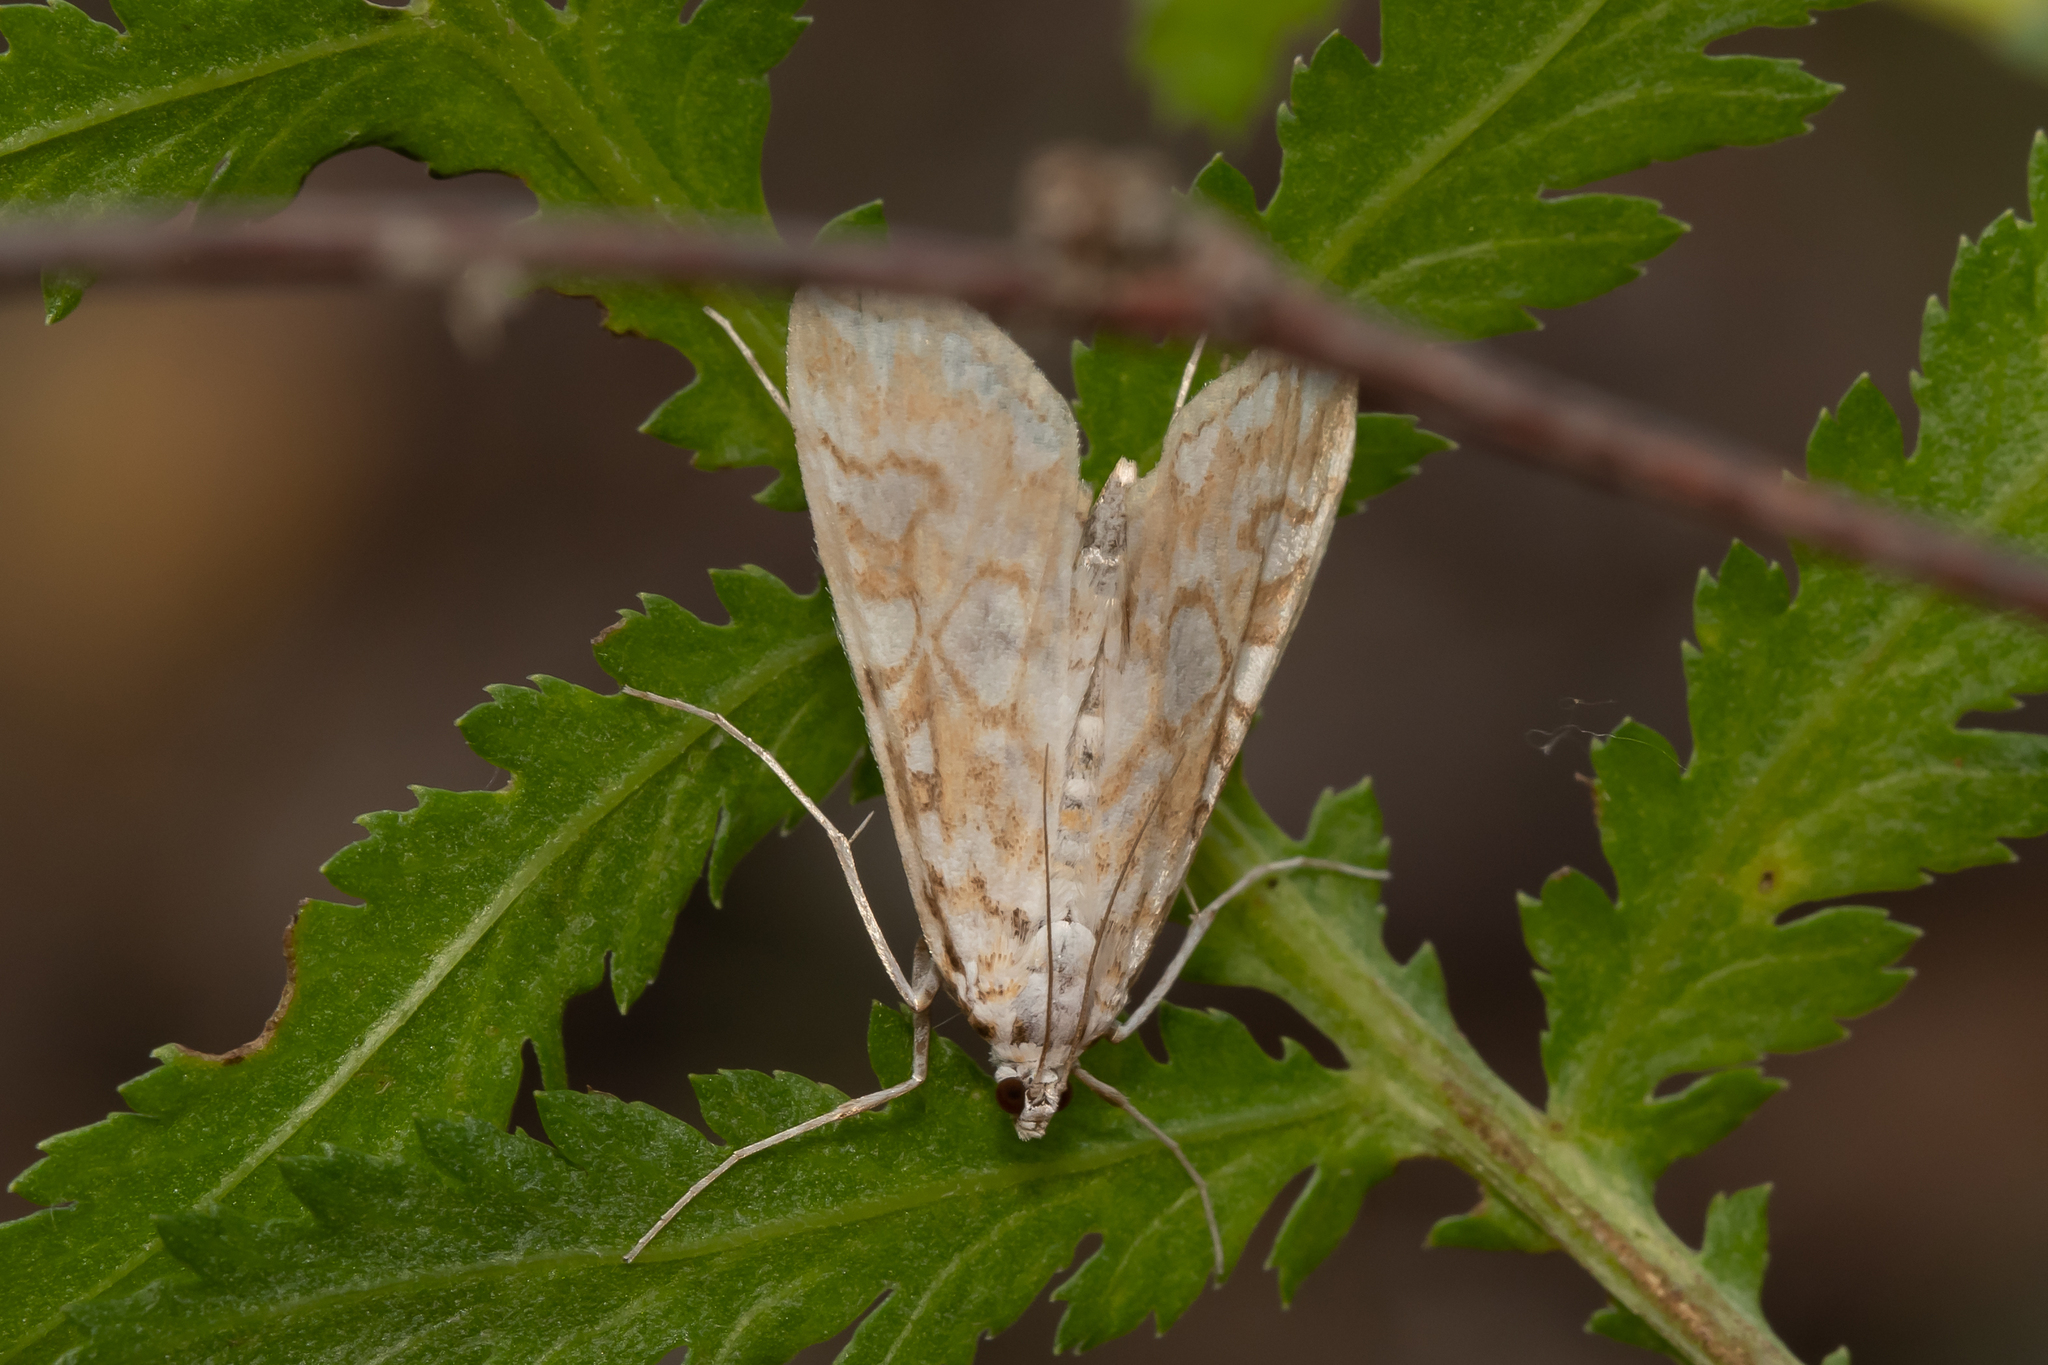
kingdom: Animalia
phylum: Arthropoda
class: Insecta
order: Lepidoptera
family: Crambidae
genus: Elophila
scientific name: Elophila nymphaeata
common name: Brown china-mark
